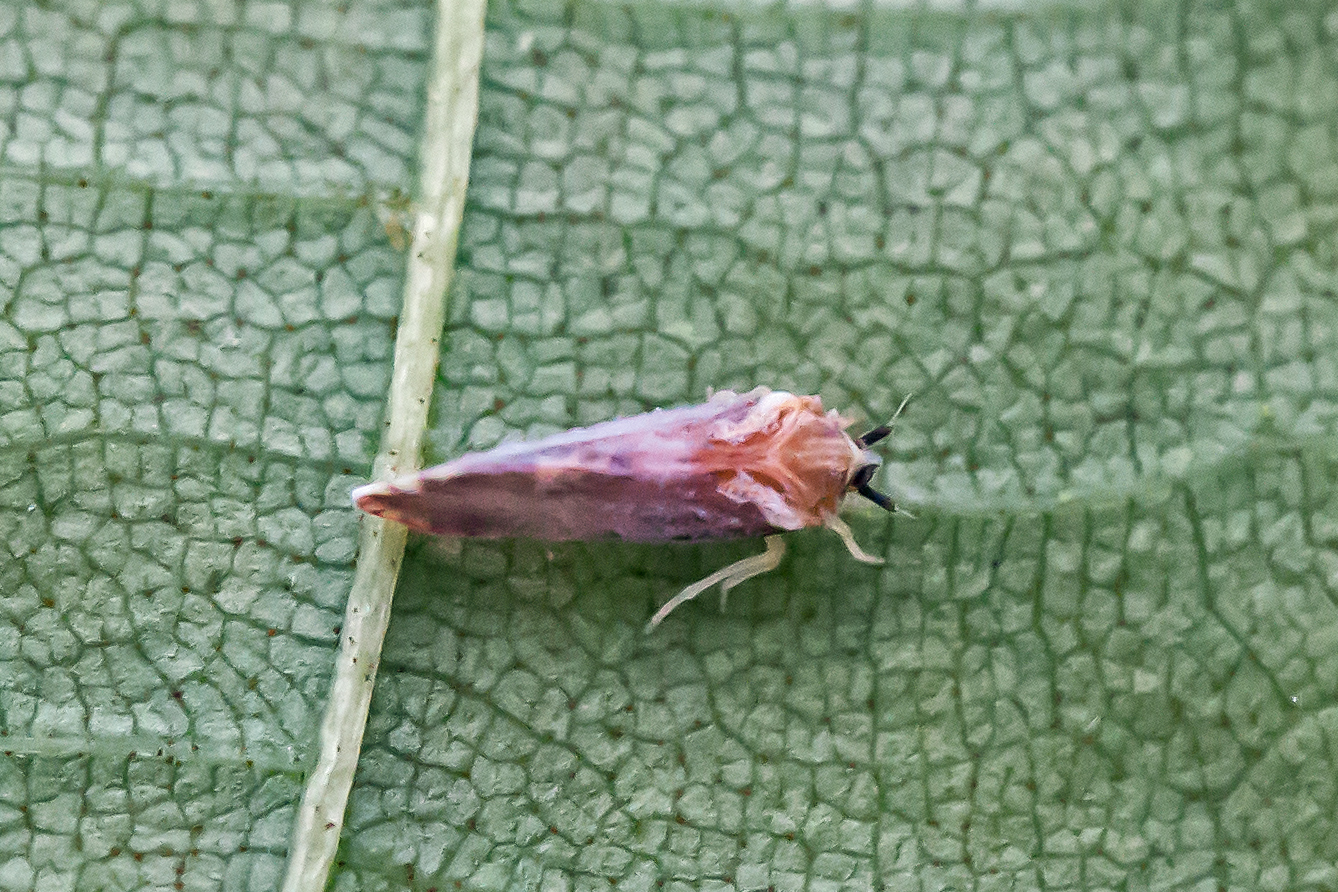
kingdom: Animalia
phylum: Arthropoda
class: Insecta
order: Hemiptera
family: Derbidae
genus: Patara
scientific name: Patara vanduzei
